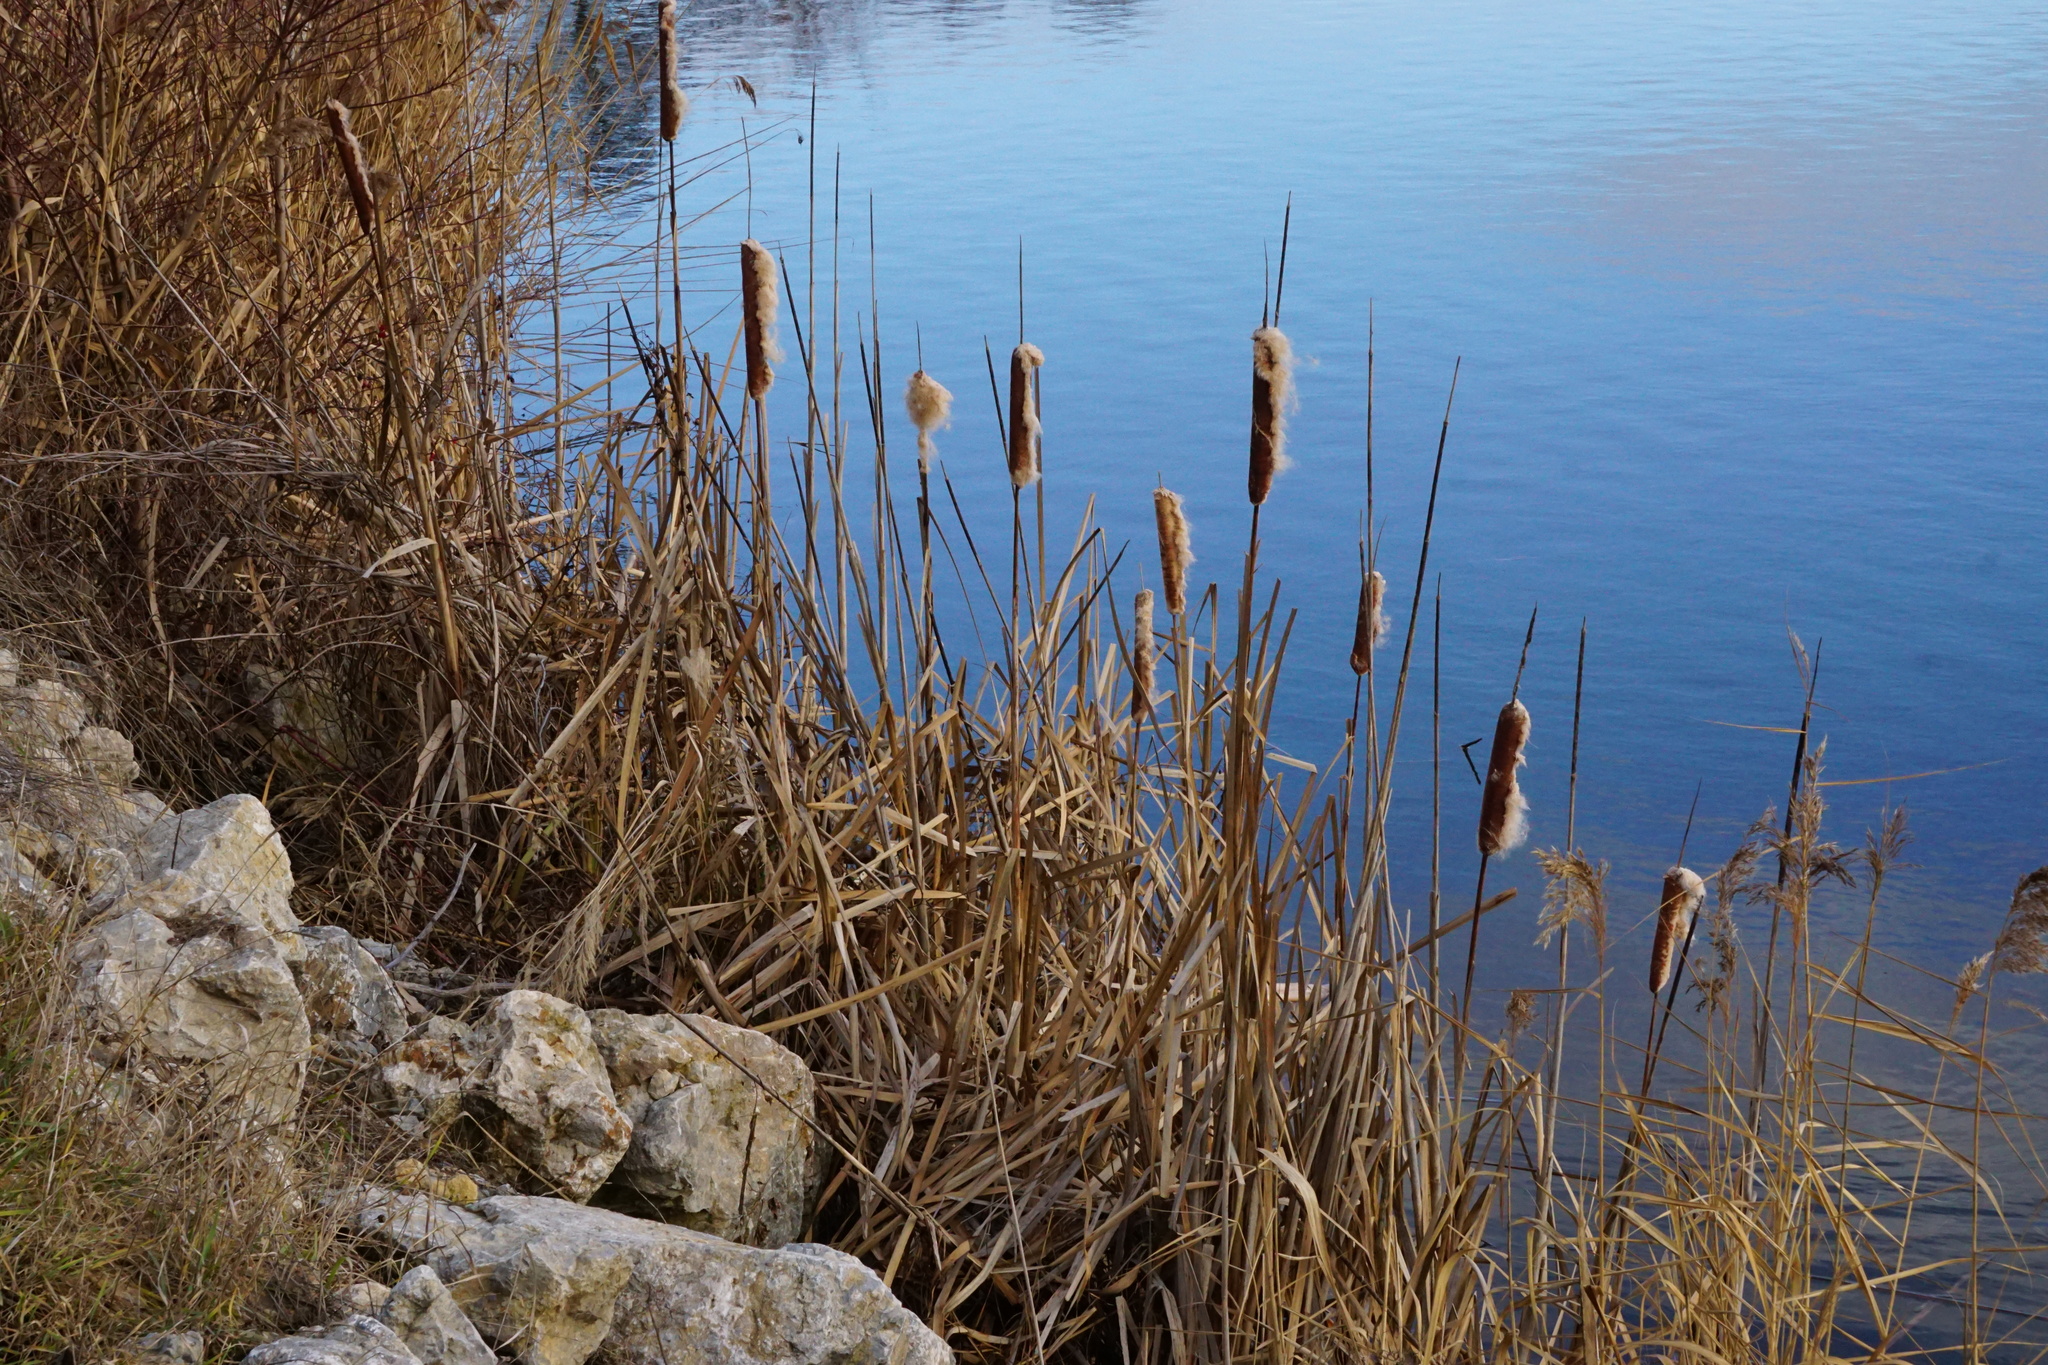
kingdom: Plantae
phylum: Tracheophyta
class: Liliopsida
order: Poales
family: Typhaceae
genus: Typha
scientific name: Typha latifolia
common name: Broadleaf cattail
